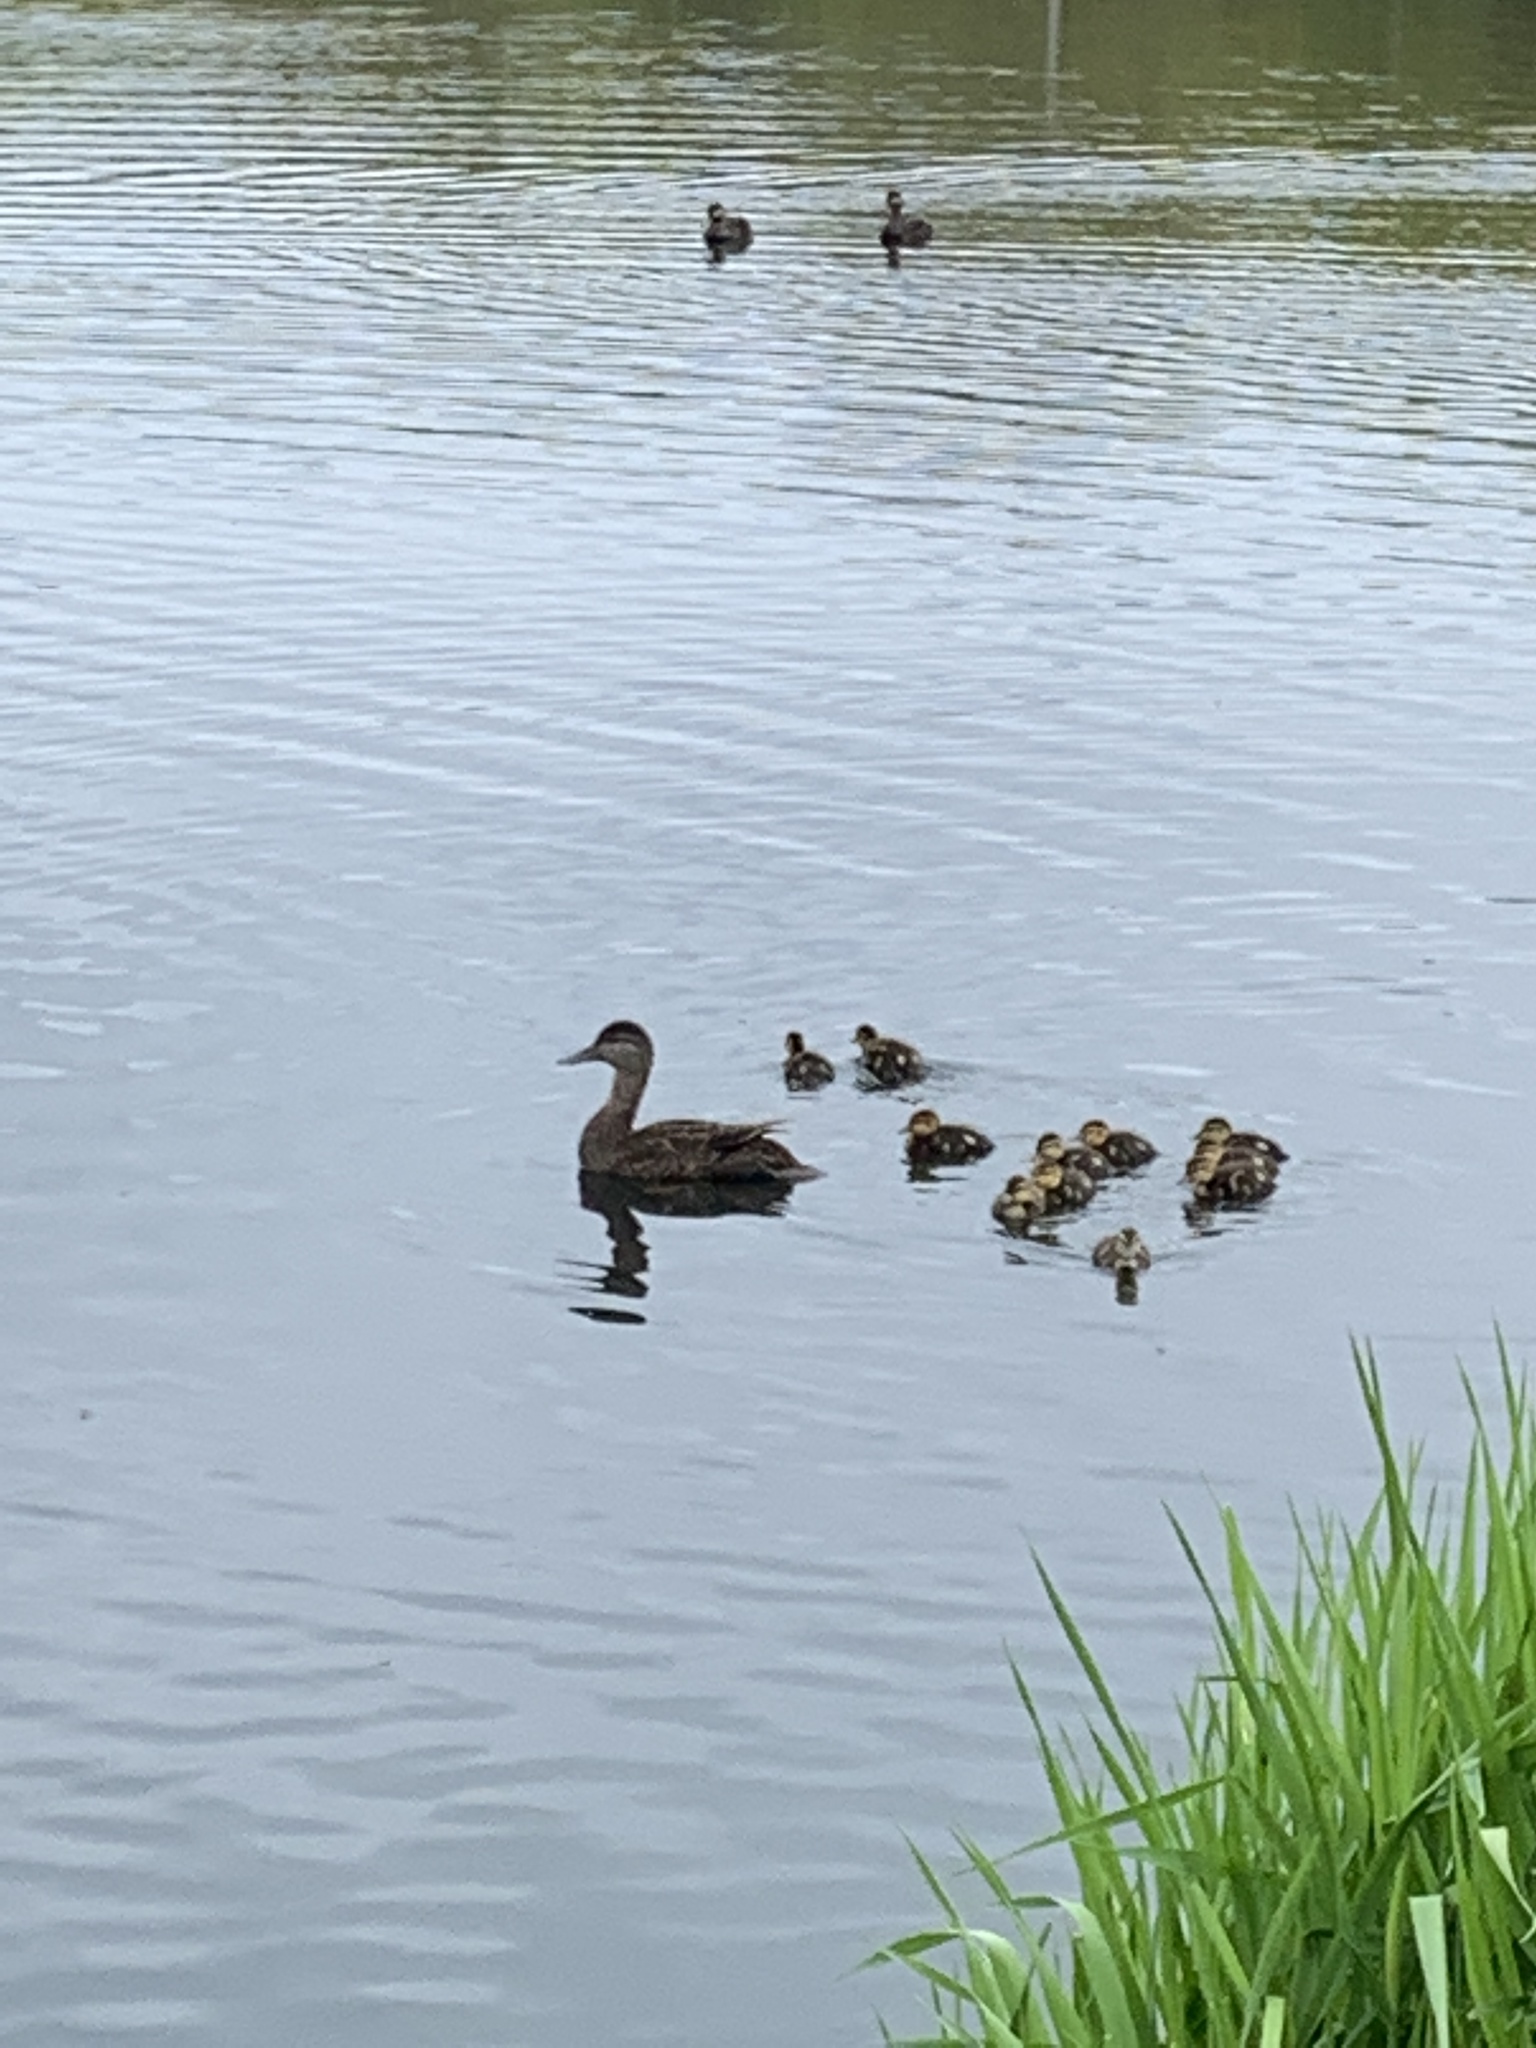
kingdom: Animalia
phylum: Chordata
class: Aves
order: Anseriformes
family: Anatidae
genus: Anas
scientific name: Anas rubripes
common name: American black duck
